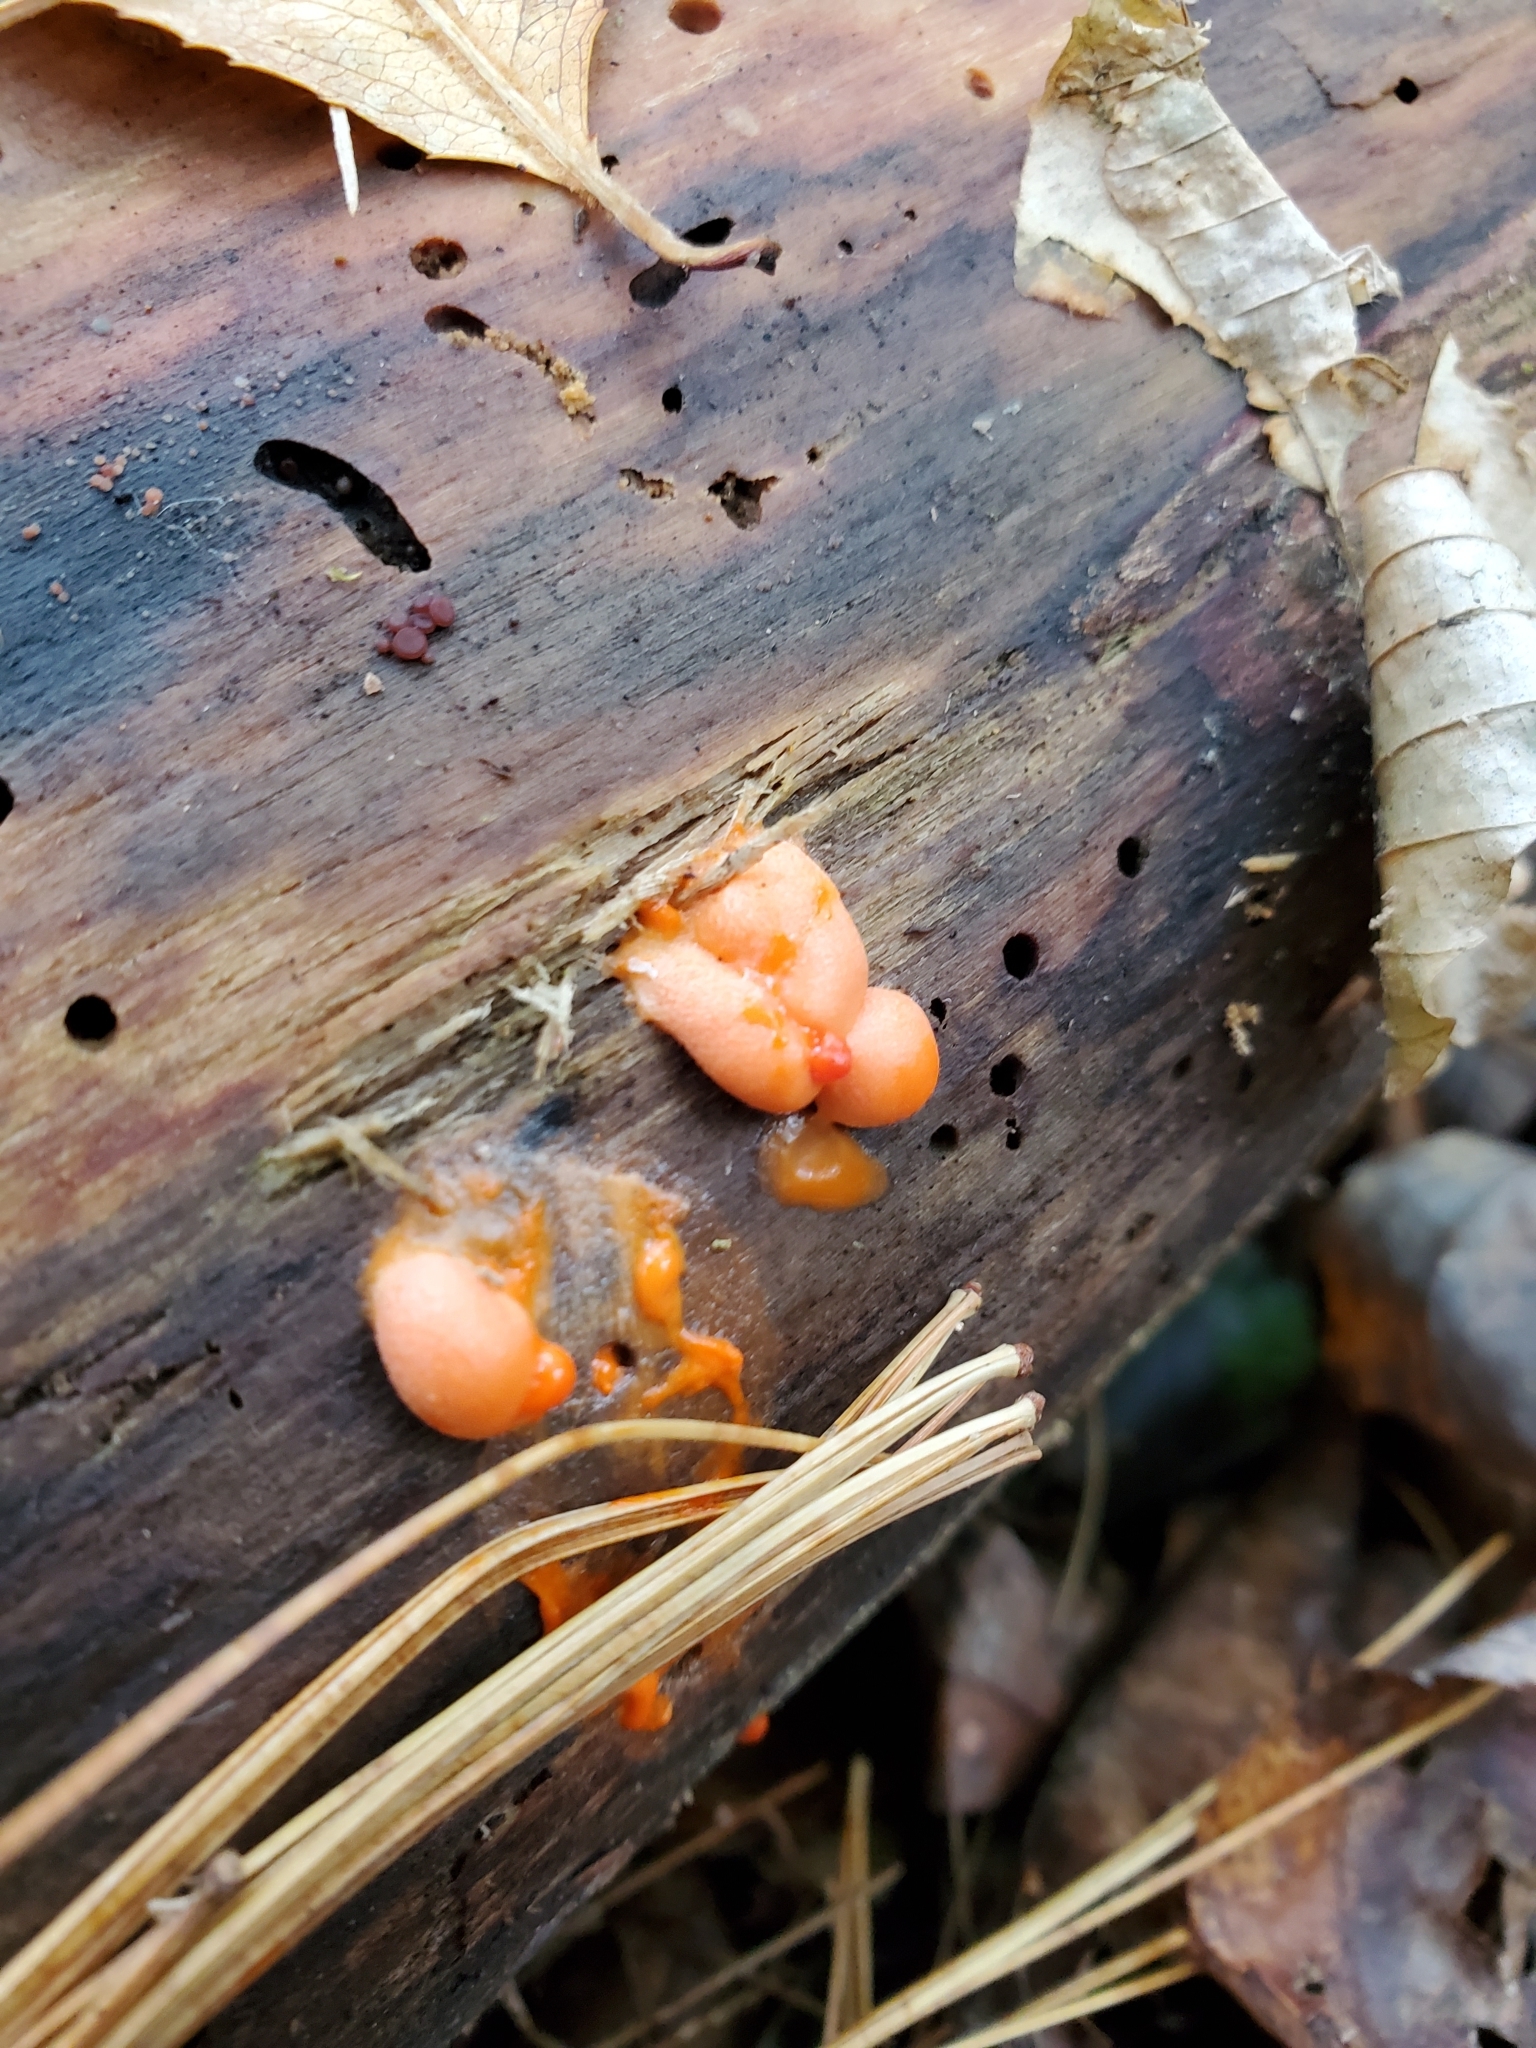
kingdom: Protozoa
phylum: Mycetozoa
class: Myxomycetes
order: Cribrariales
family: Tubiferaceae
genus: Lycogala
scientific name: Lycogala epidendrum
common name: Wolf's milk
